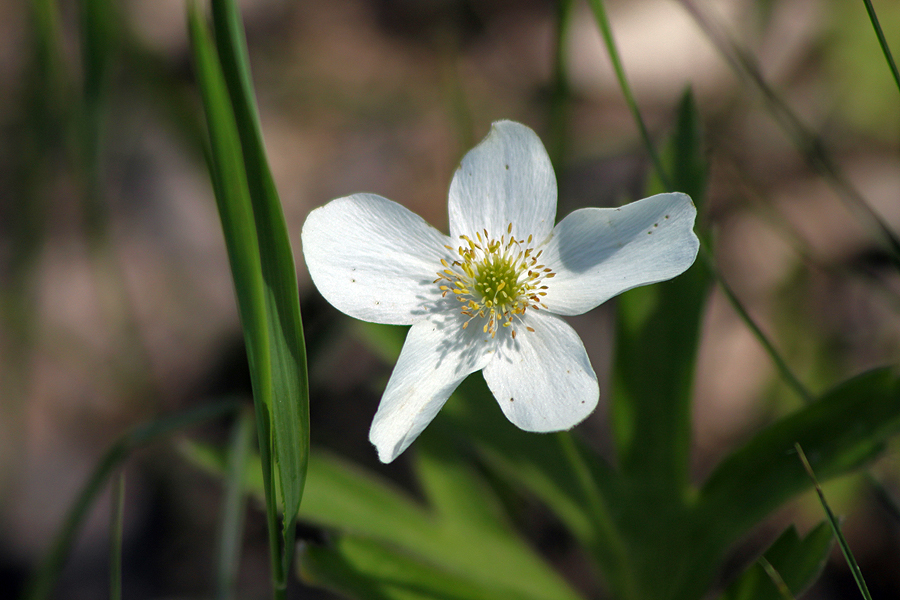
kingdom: Plantae
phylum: Tracheophyta
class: Magnoliopsida
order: Ranunculales
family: Ranunculaceae
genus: Anemonastrum
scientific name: Anemonastrum canadense
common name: Canada anemone
